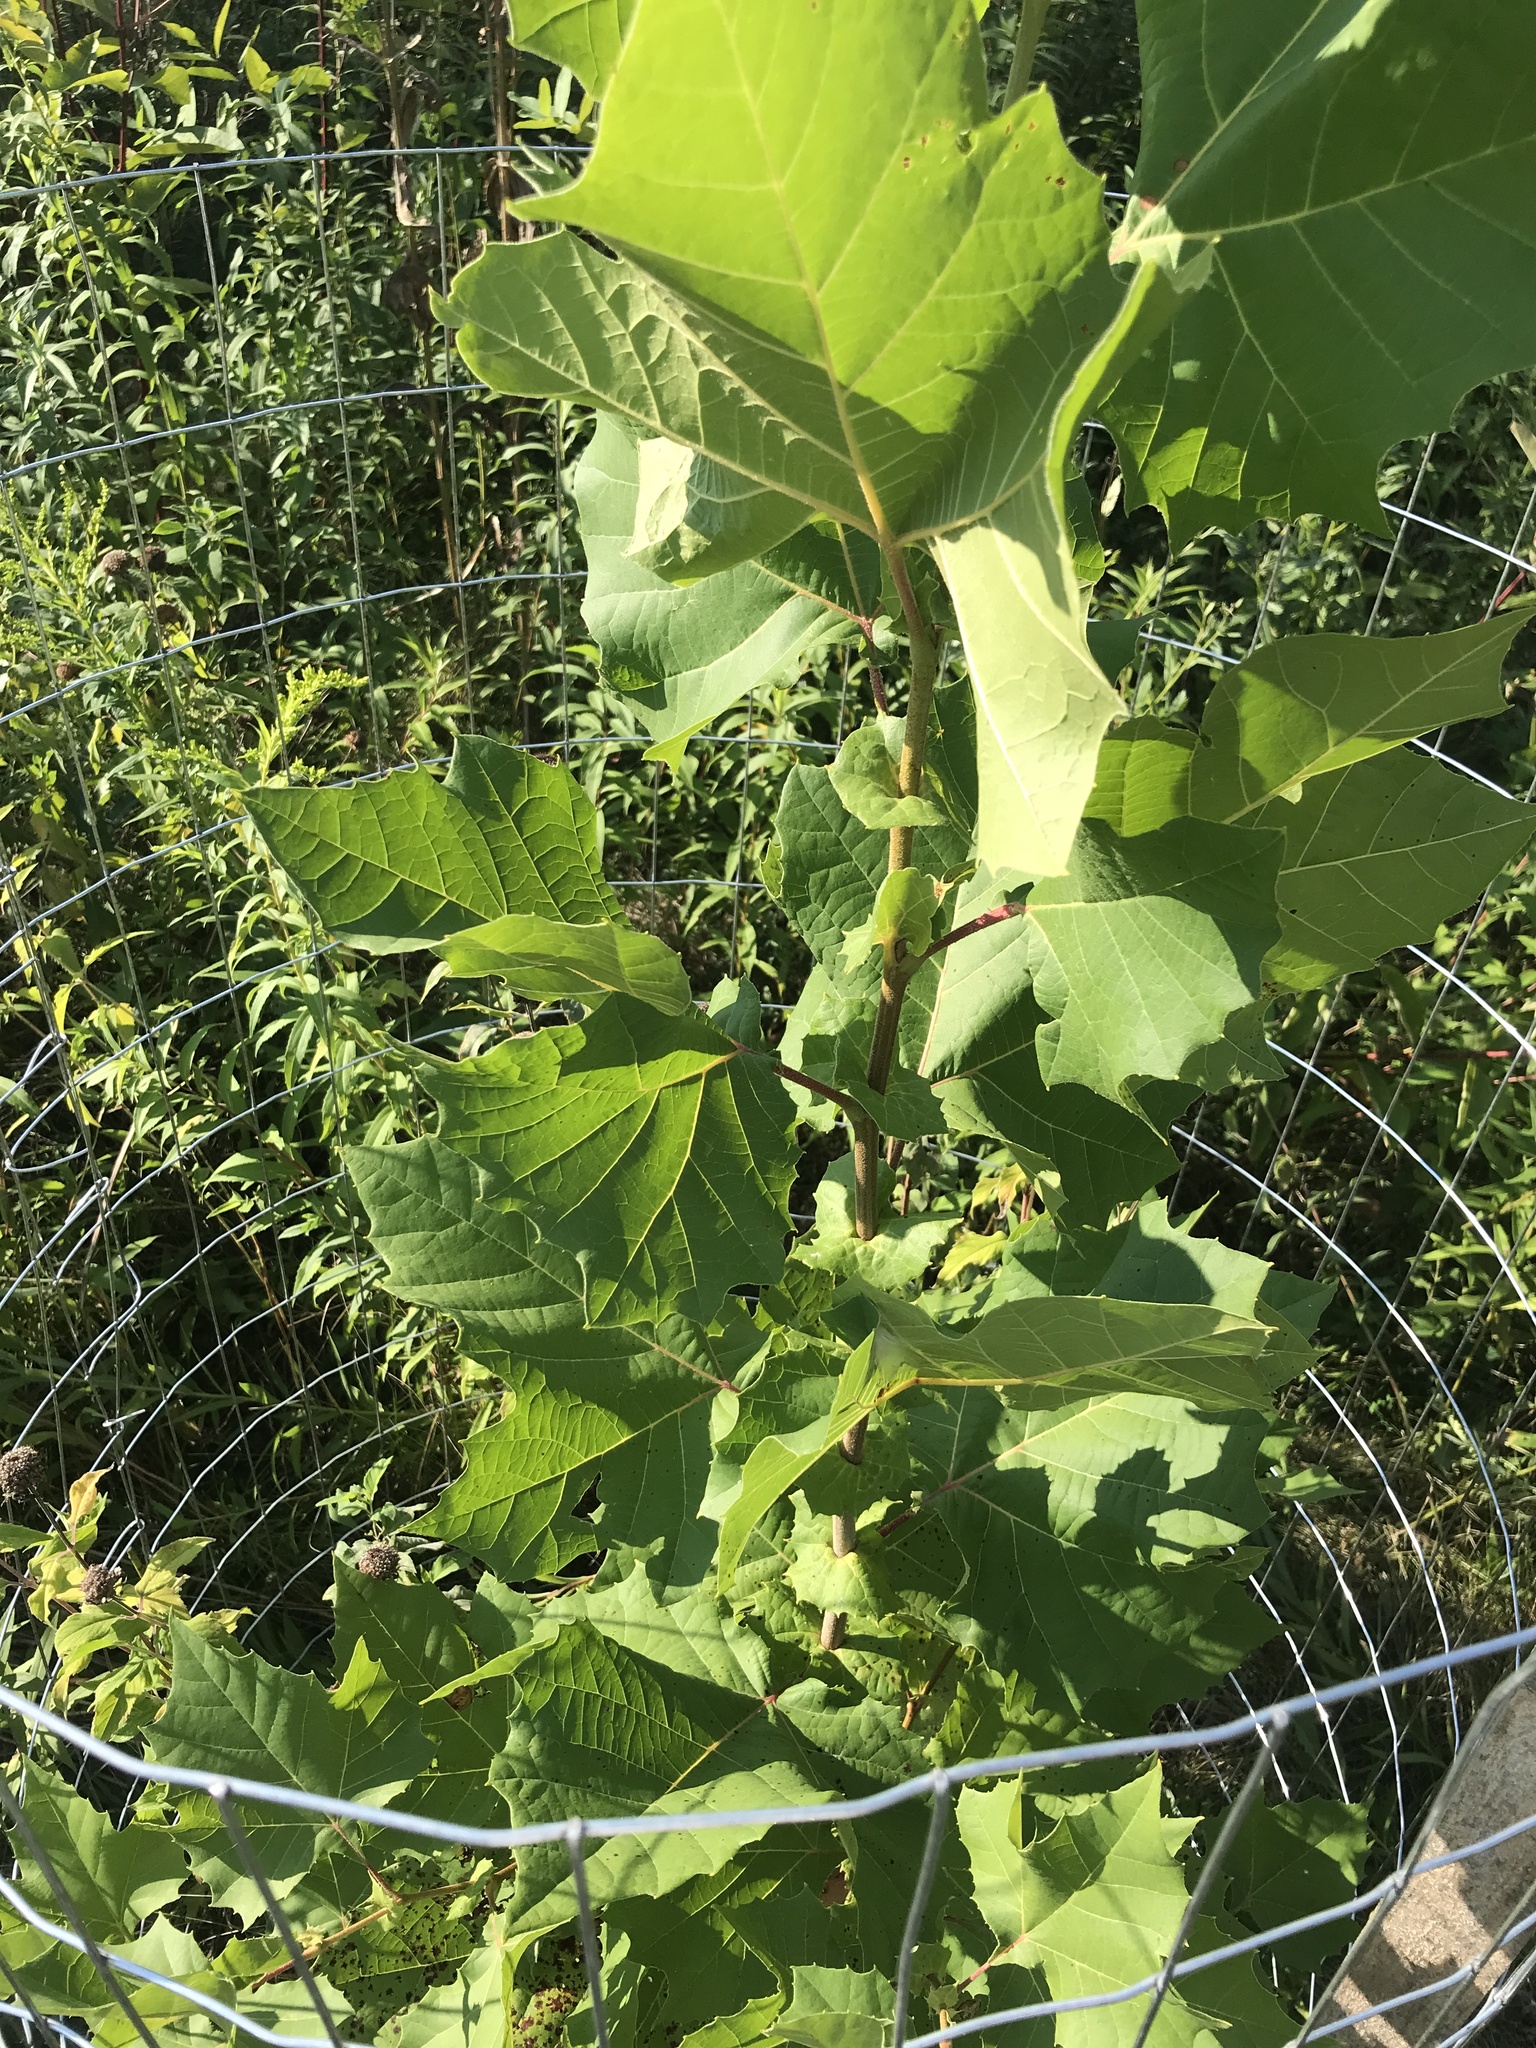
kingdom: Plantae
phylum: Tracheophyta
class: Magnoliopsida
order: Proteales
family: Platanaceae
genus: Platanus
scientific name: Platanus occidentalis
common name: American sycamore
